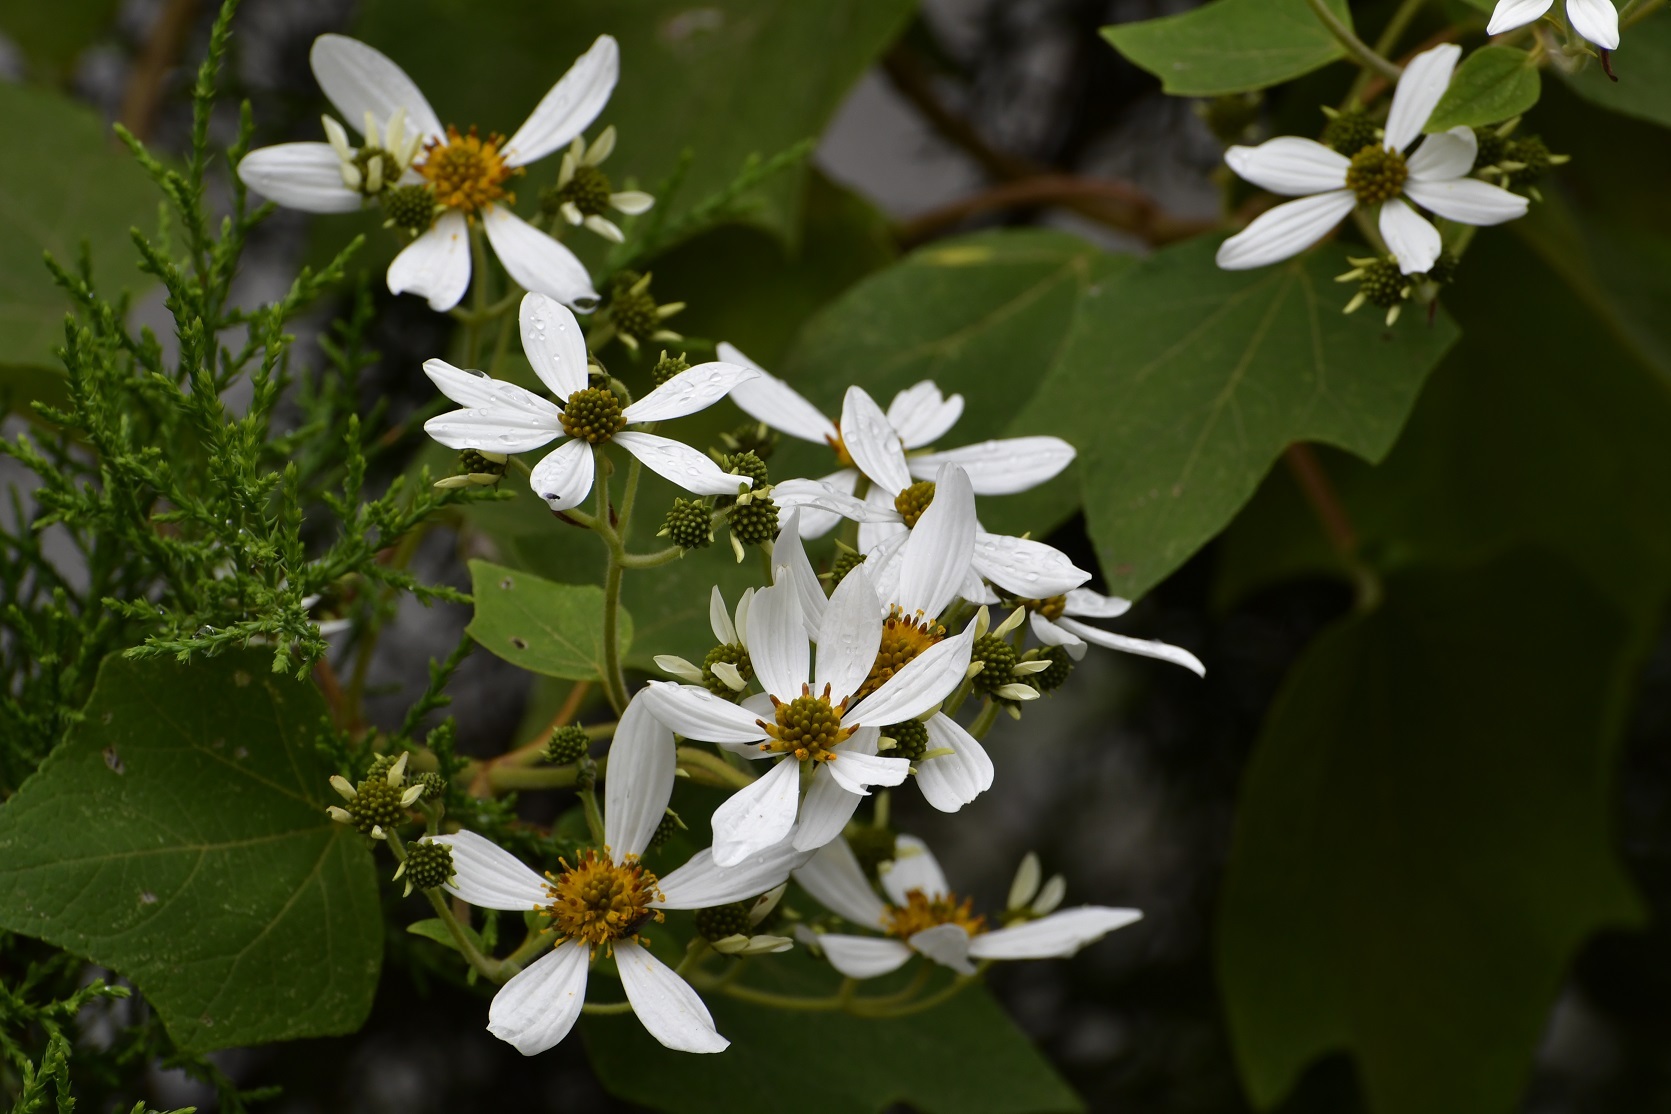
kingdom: Plantae
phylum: Tracheophyta
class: Magnoliopsida
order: Asterales
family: Asteraceae
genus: Montanoa
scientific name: Montanoa leucantha
